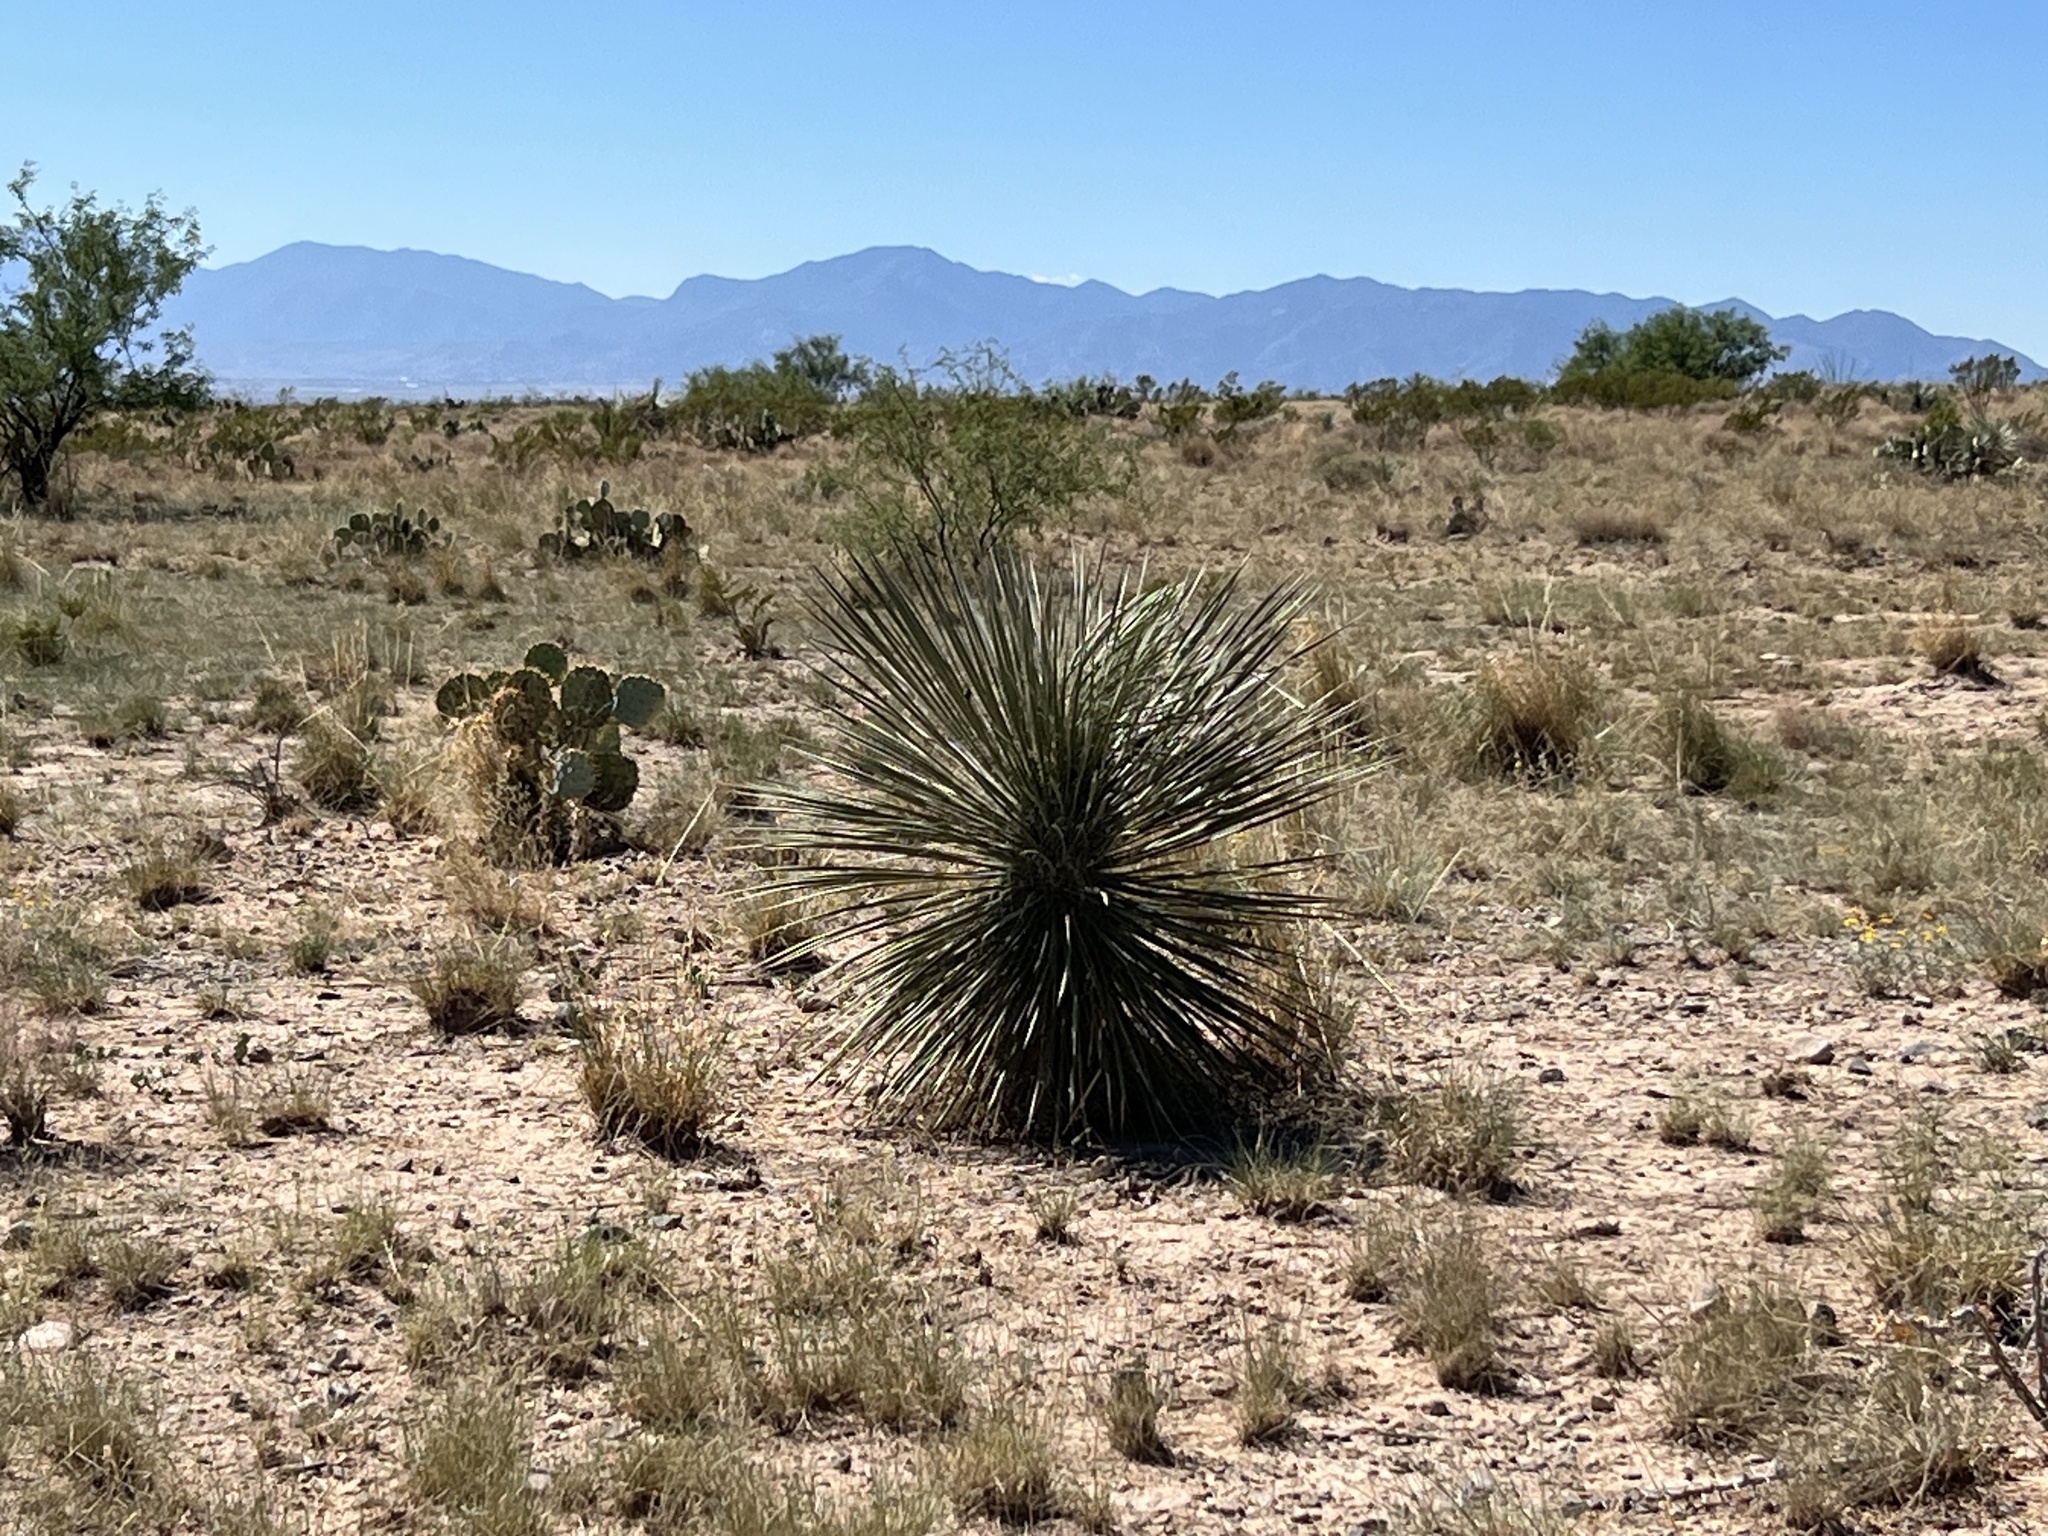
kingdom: Plantae
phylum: Tracheophyta
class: Liliopsida
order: Asparagales
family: Asparagaceae
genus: Yucca
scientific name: Yucca elata
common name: Palmella
